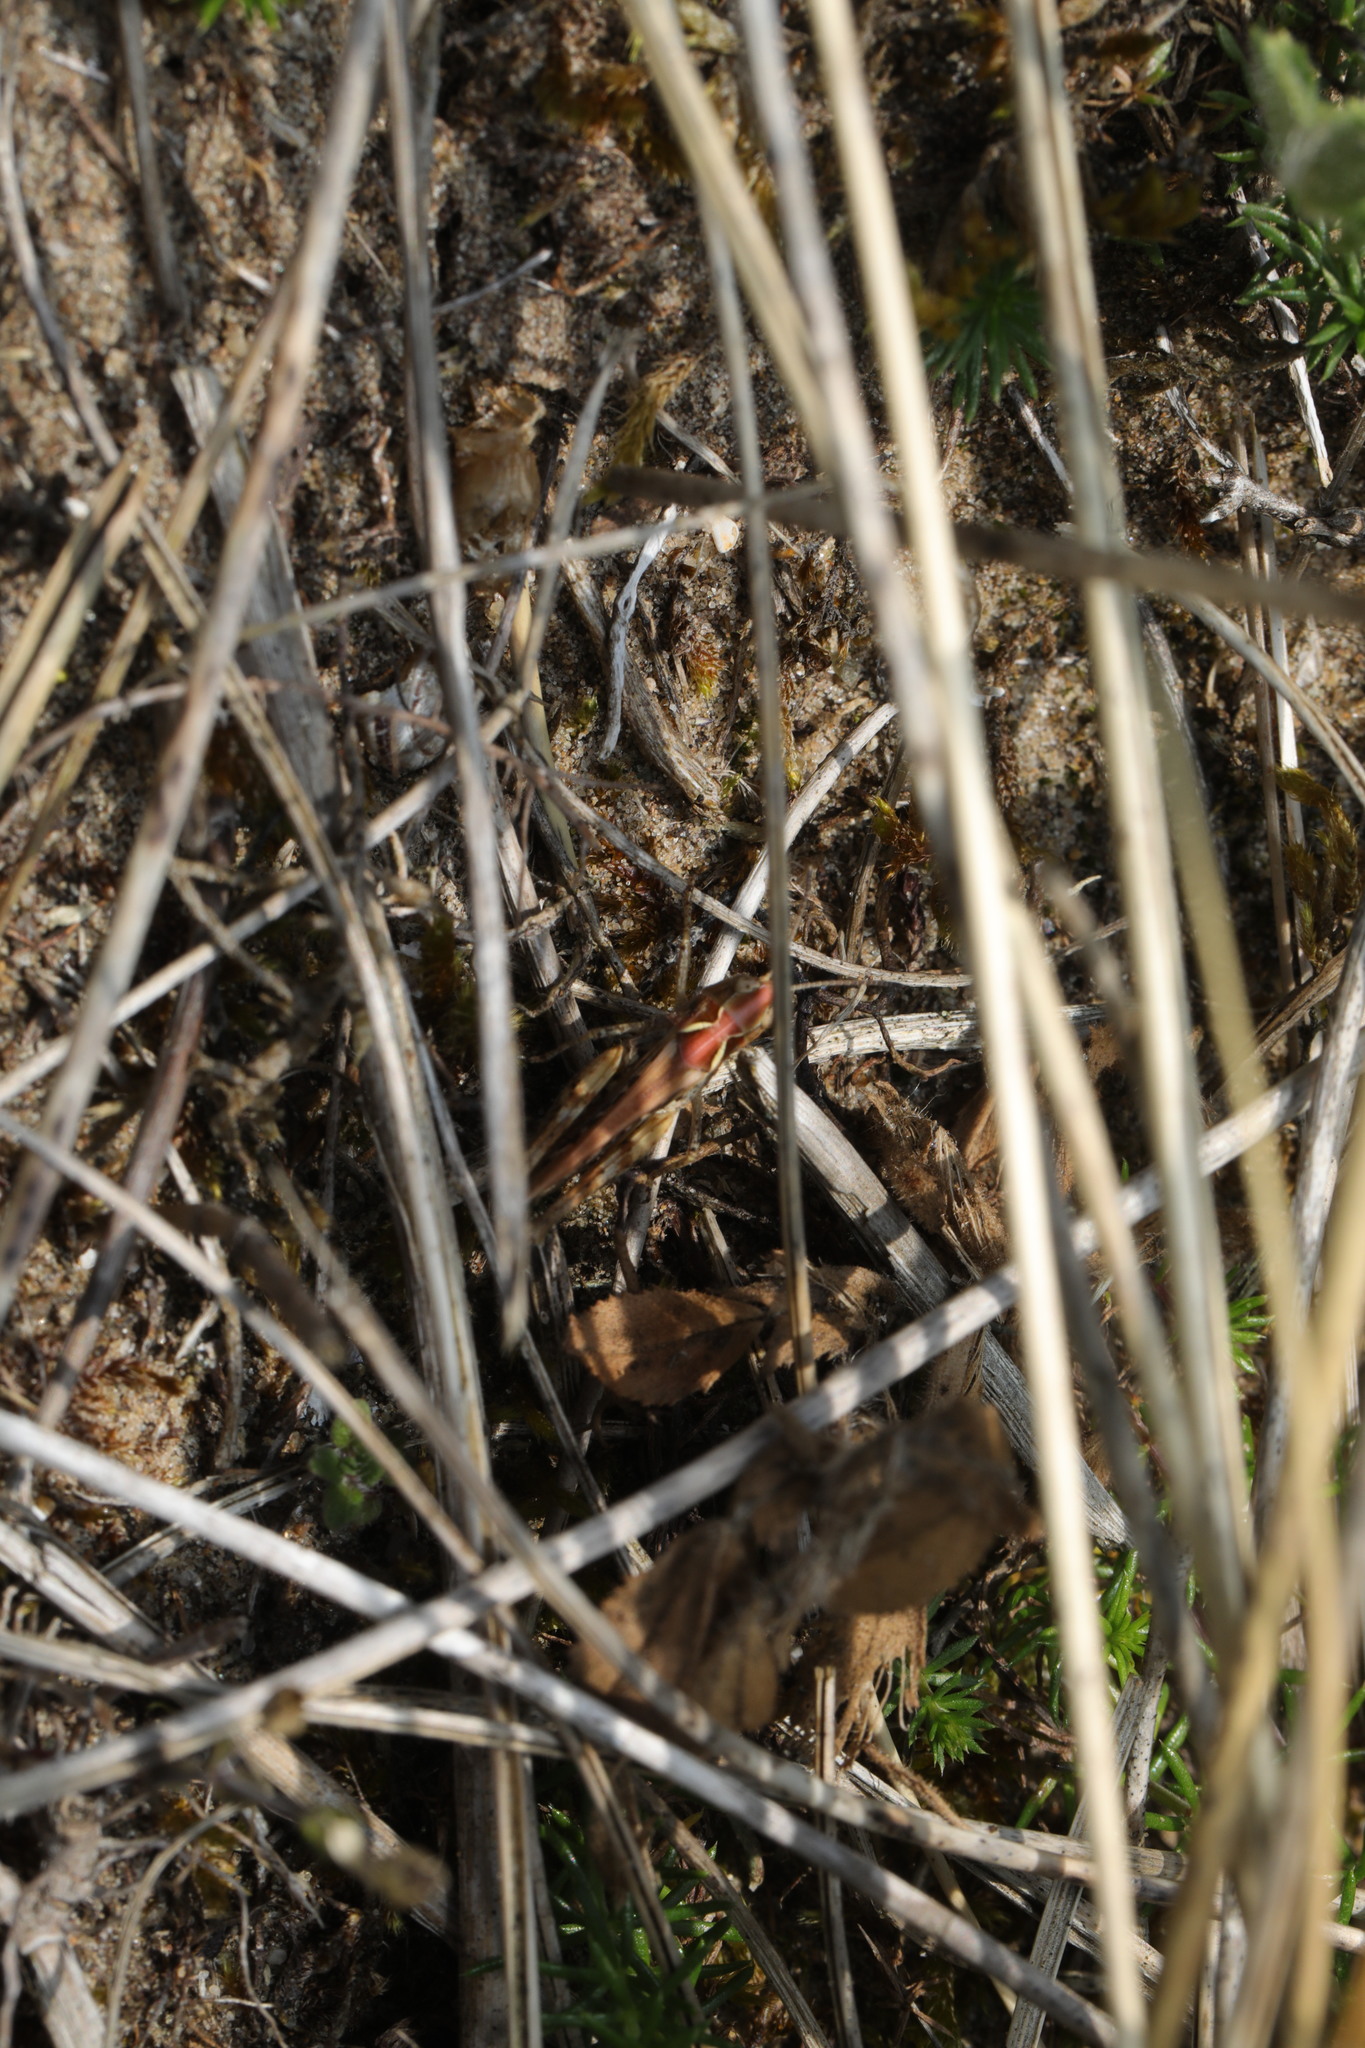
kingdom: Animalia
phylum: Arthropoda
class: Insecta
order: Orthoptera
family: Acrididae
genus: Myrmeleotettix
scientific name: Myrmeleotettix maculatus
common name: Mottled grasshopper
